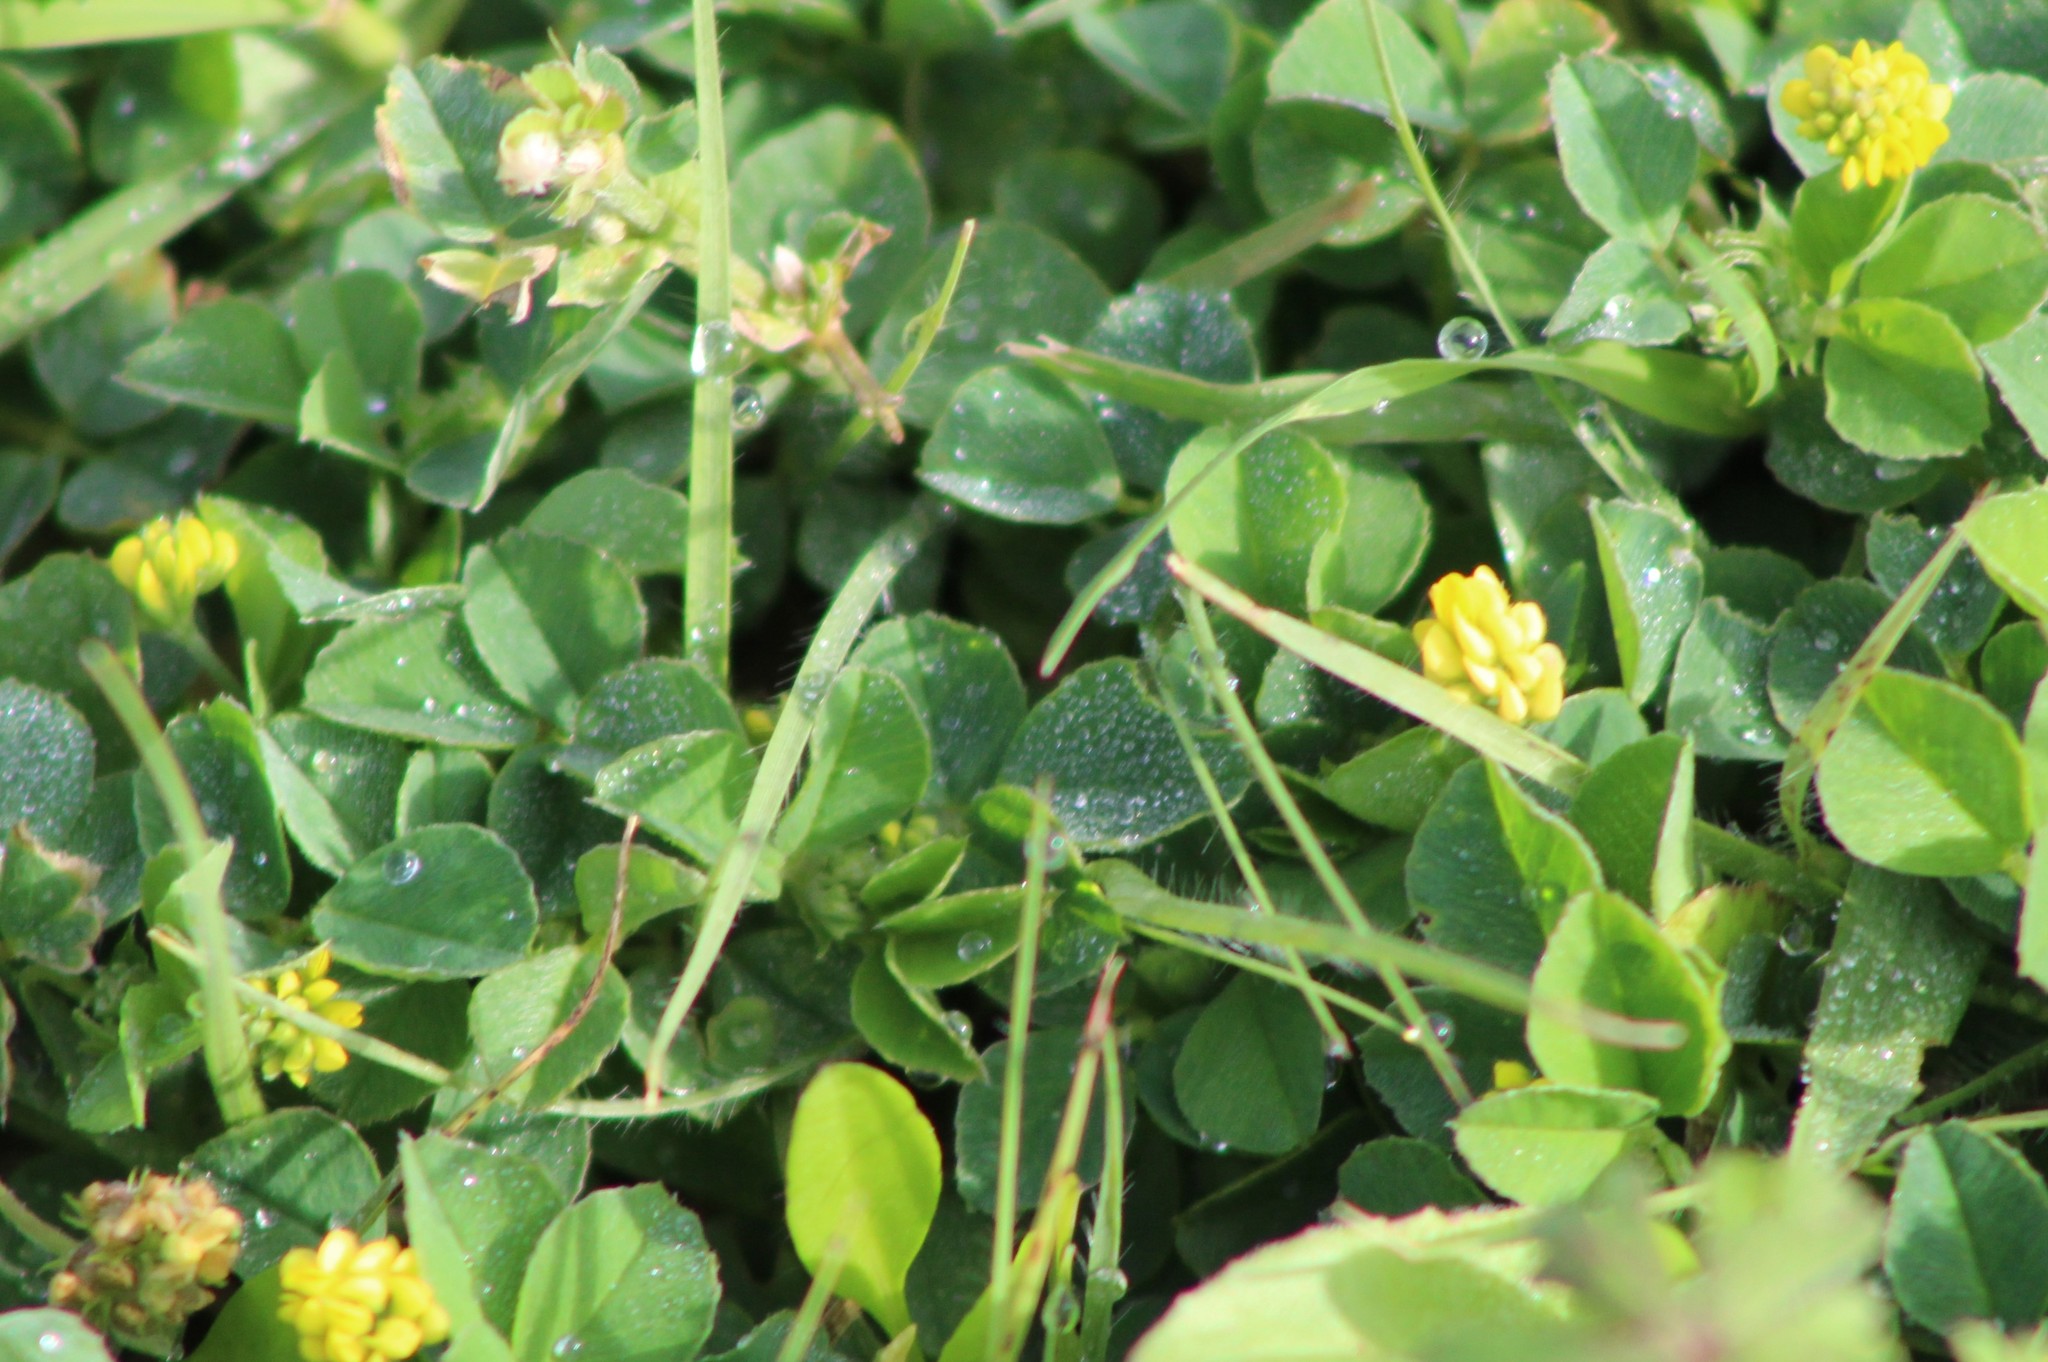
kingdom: Plantae
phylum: Tracheophyta
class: Magnoliopsida
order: Fabales
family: Fabaceae
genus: Medicago
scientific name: Medicago lupulina
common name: Black medick
